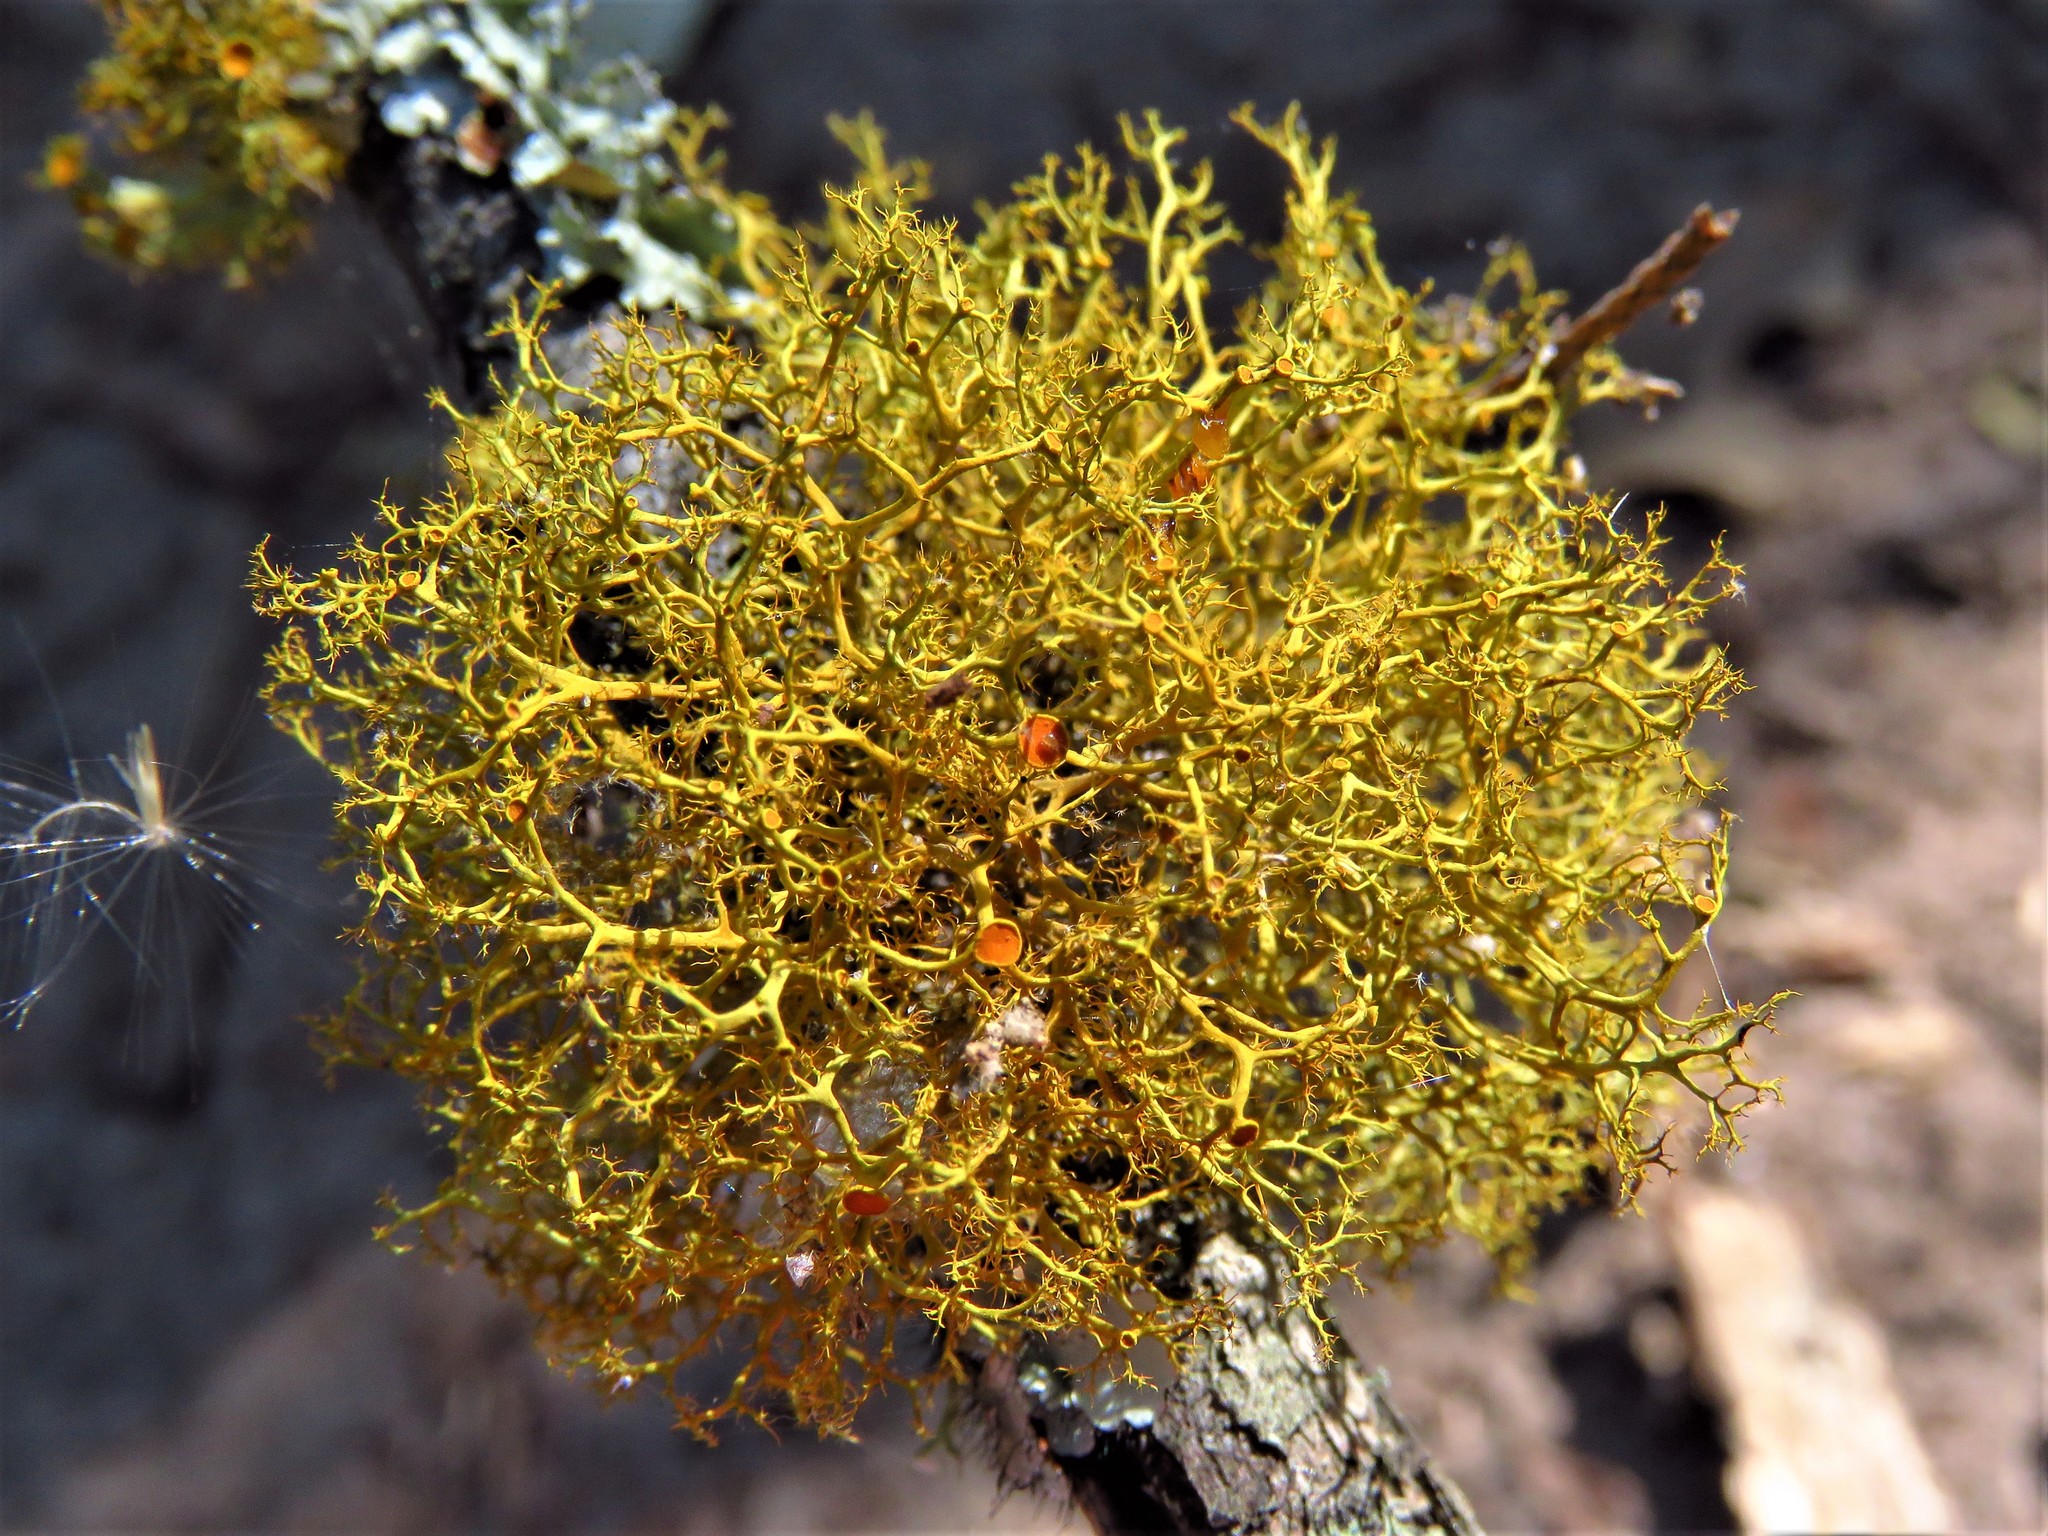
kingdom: Fungi
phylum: Ascomycota
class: Lecanoromycetes
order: Teloschistales
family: Teloschistaceae
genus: Teloschistes
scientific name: Teloschistes exilis
